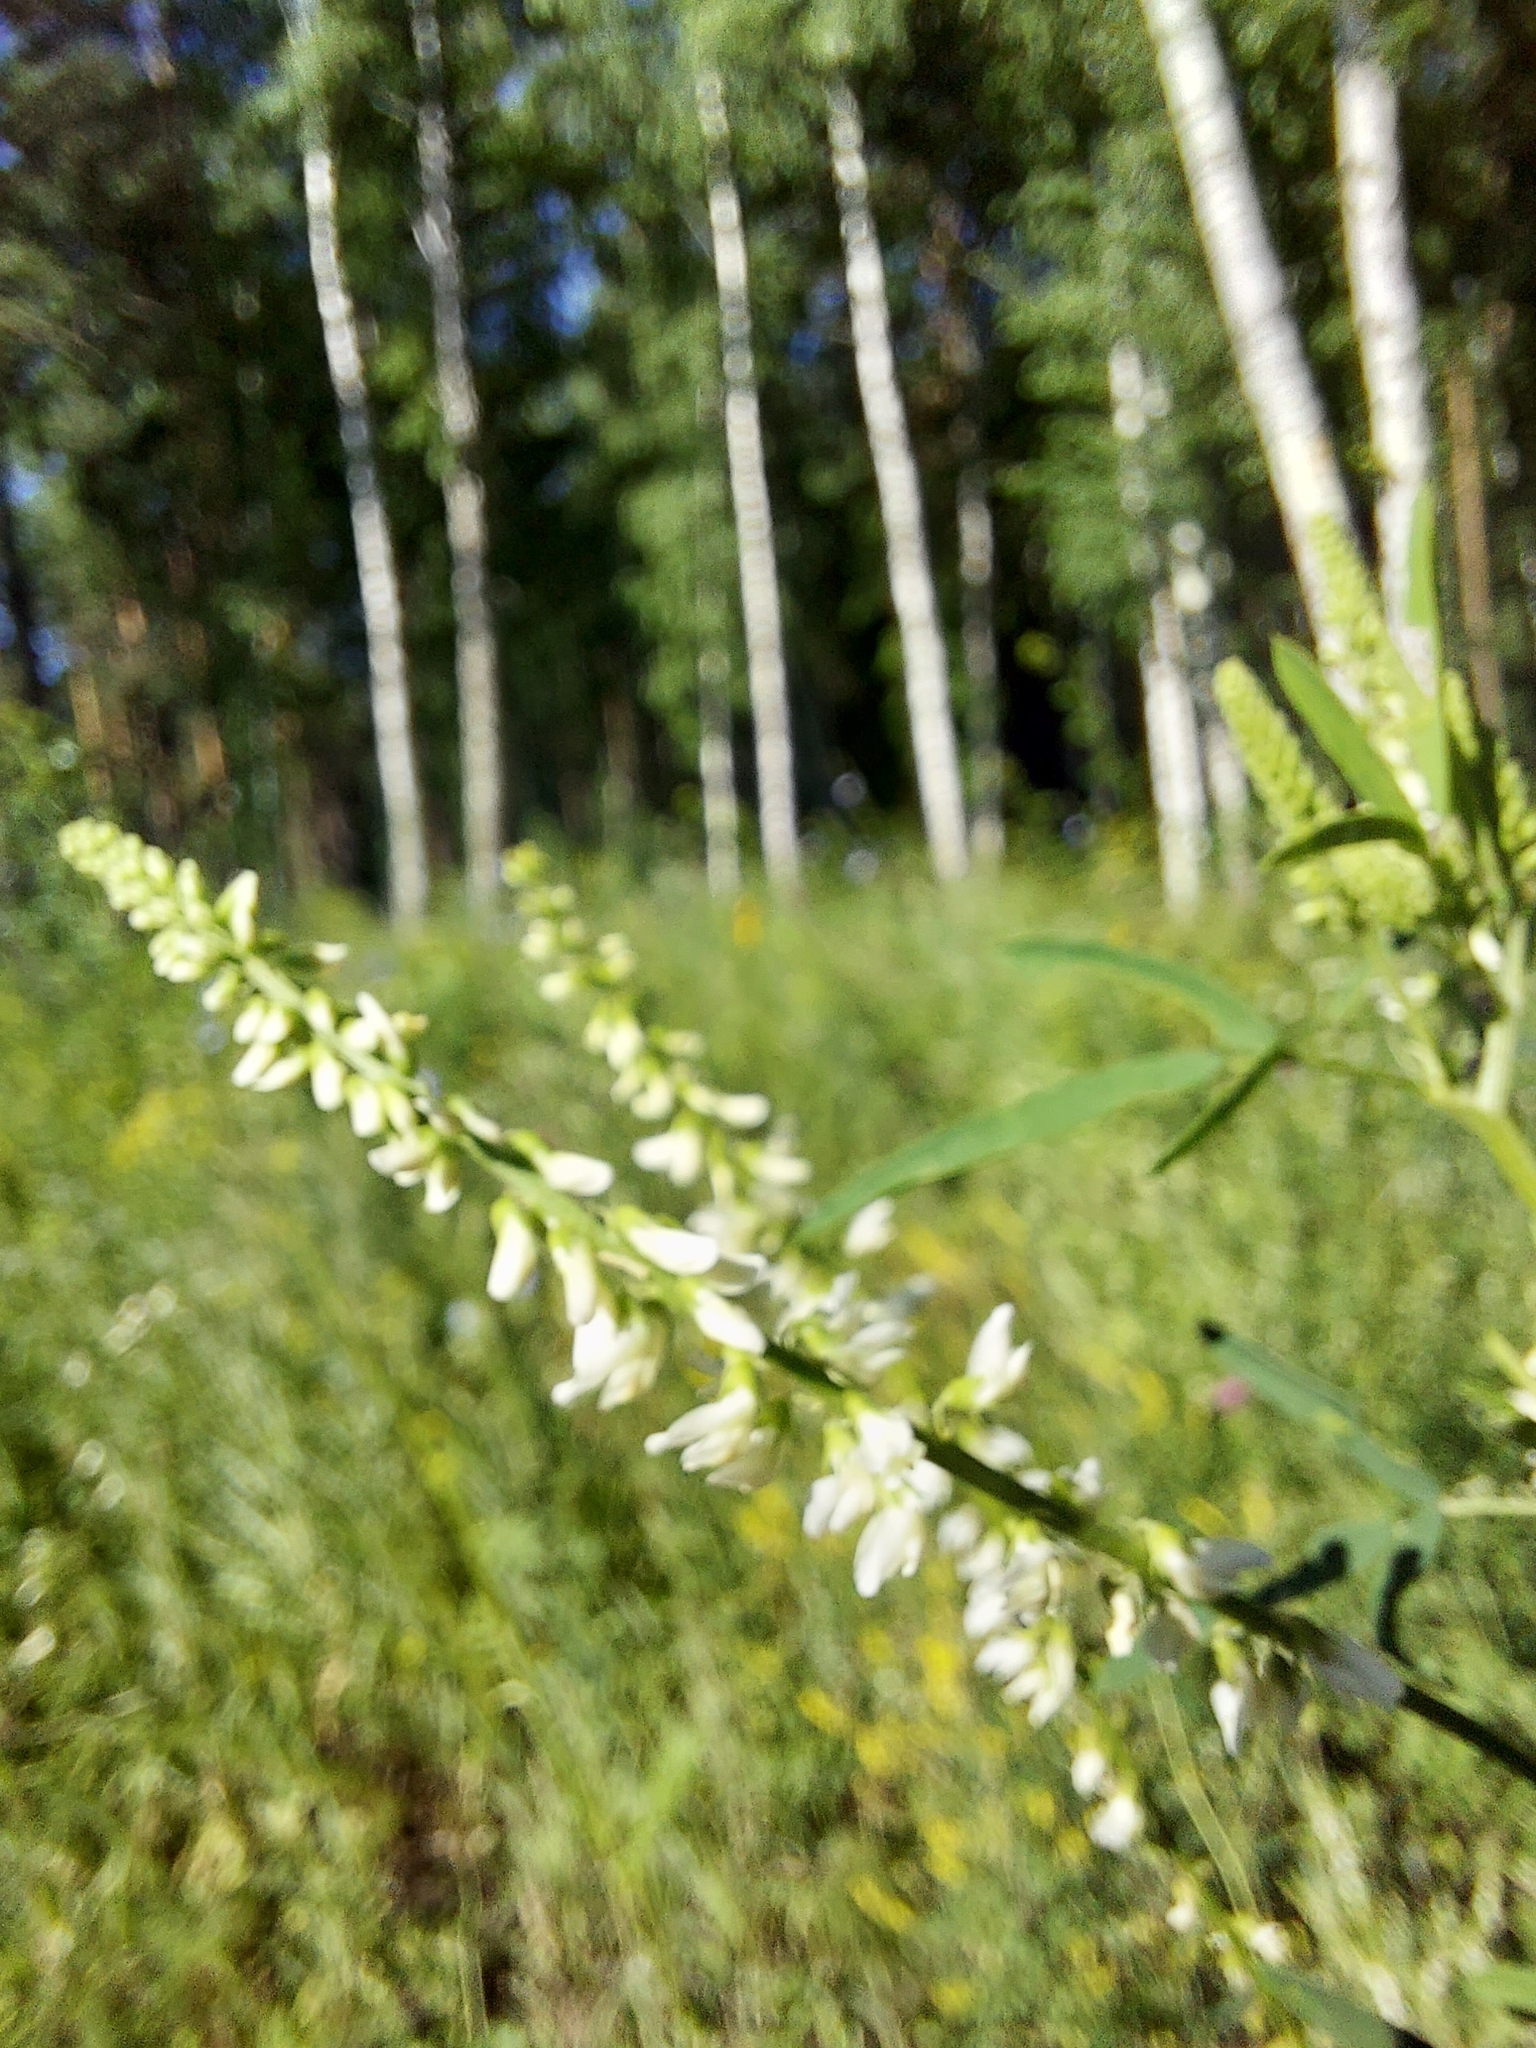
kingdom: Plantae
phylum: Tracheophyta
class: Magnoliopsida
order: Fabales
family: Fabaceae
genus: Melilotus
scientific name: Melilotus albus
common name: White melilot
